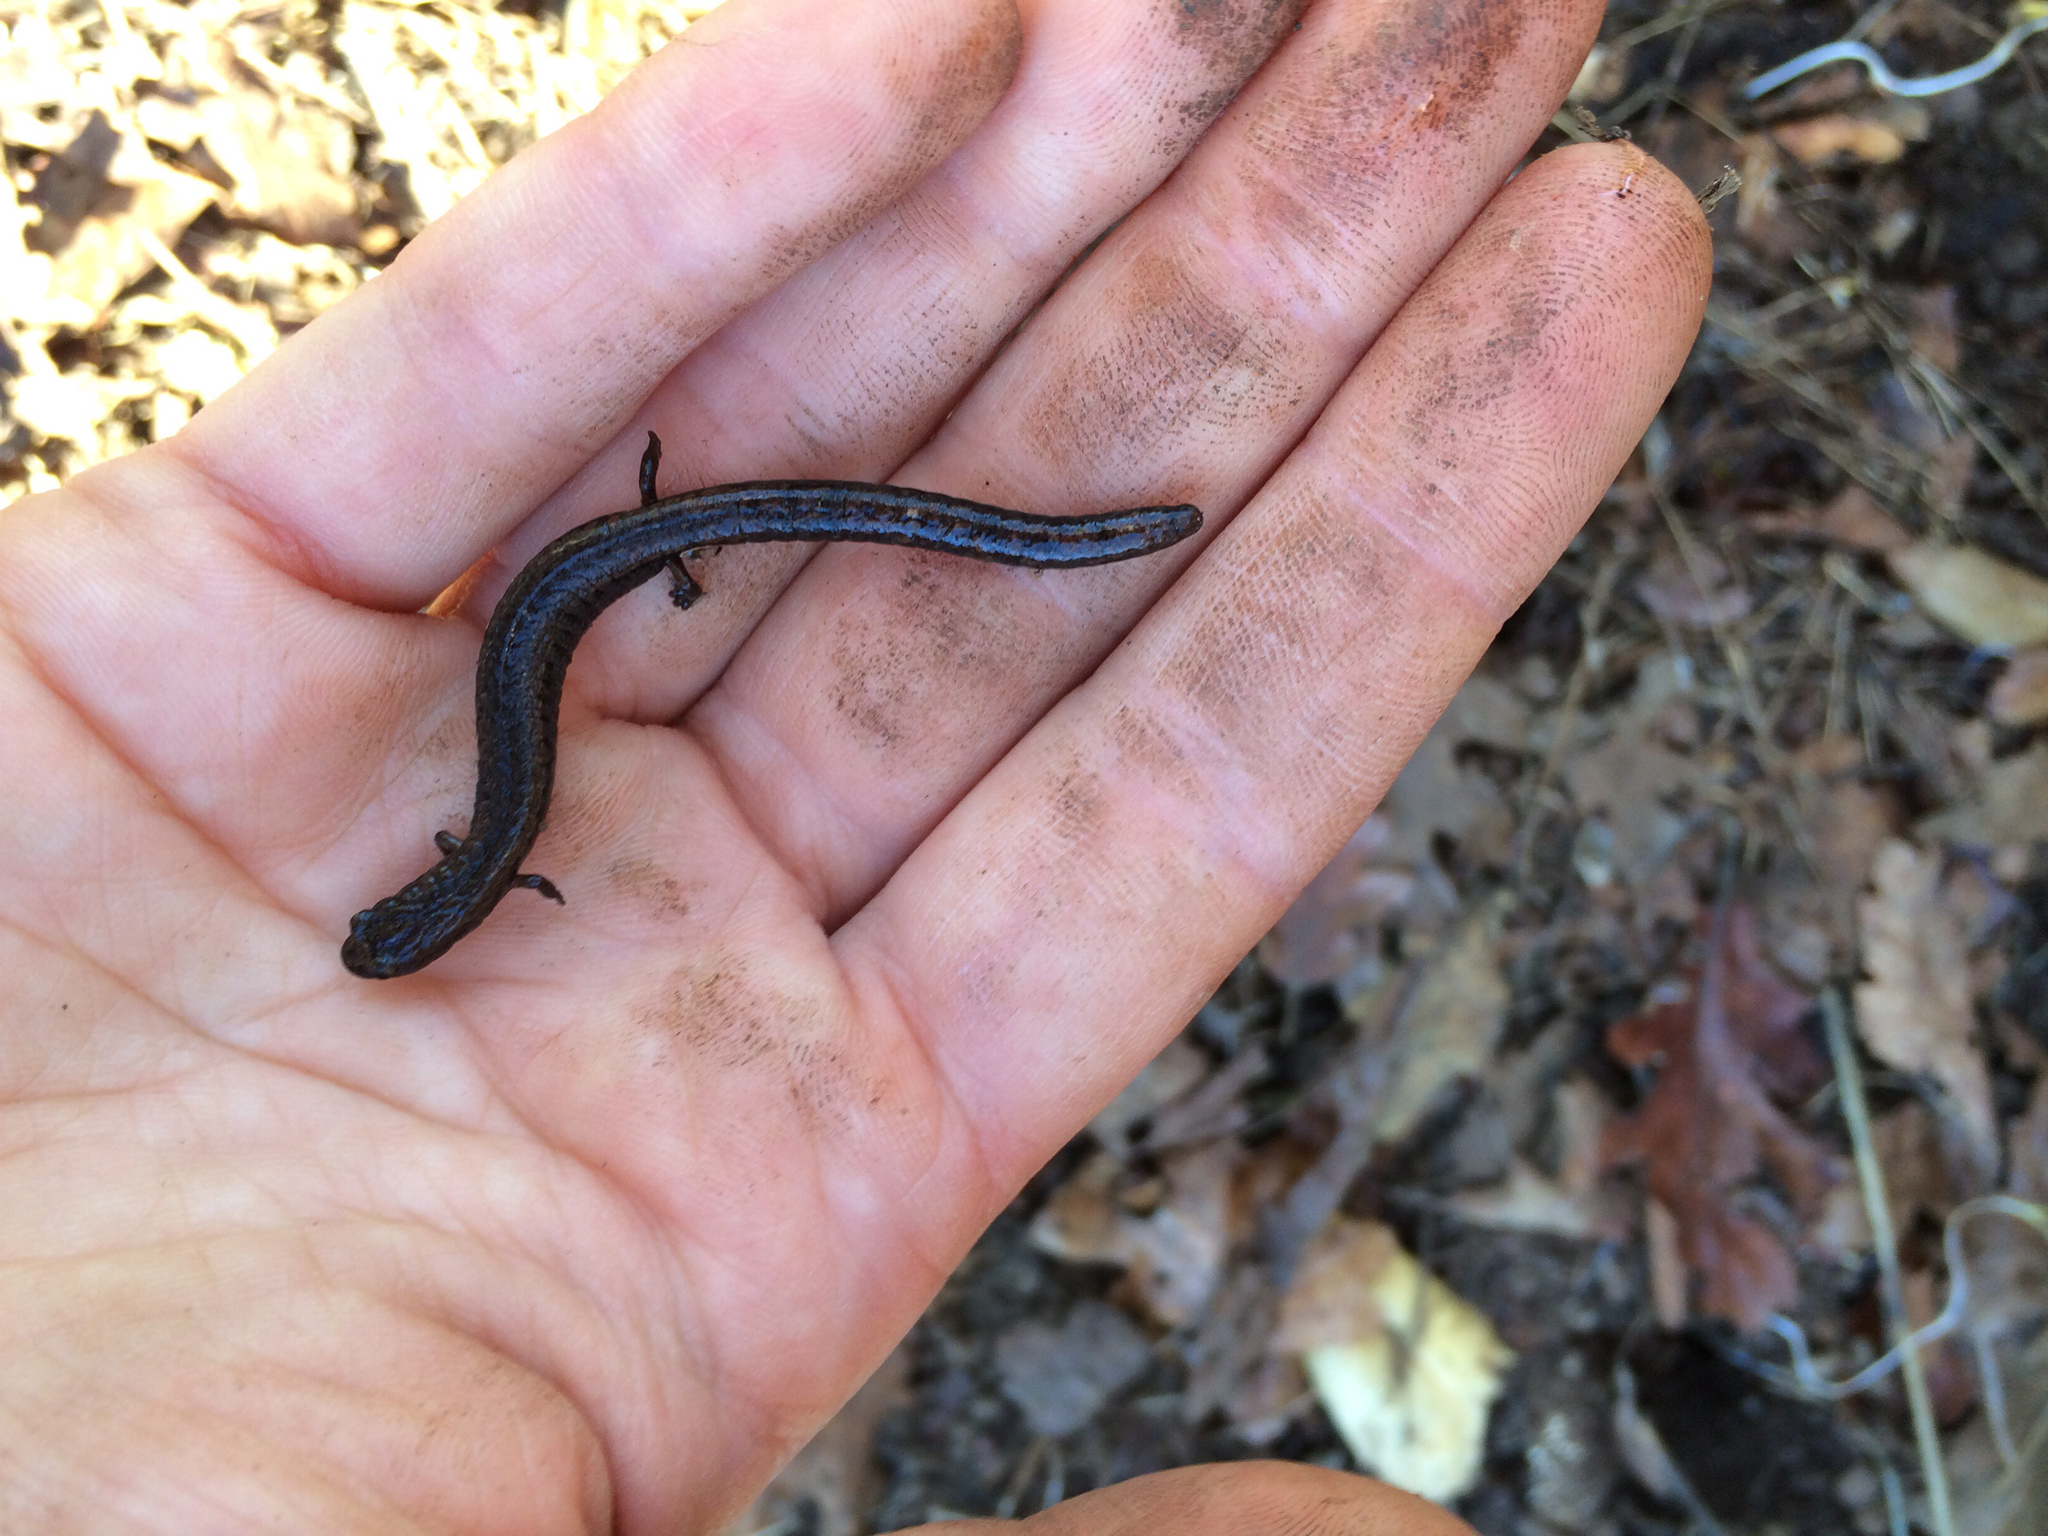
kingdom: Animalia
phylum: Chordata
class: Amphibia
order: Caudata
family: Plethodontidae
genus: Batrachoseps
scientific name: Batrachoseps attenuatus
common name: California slender salamander
